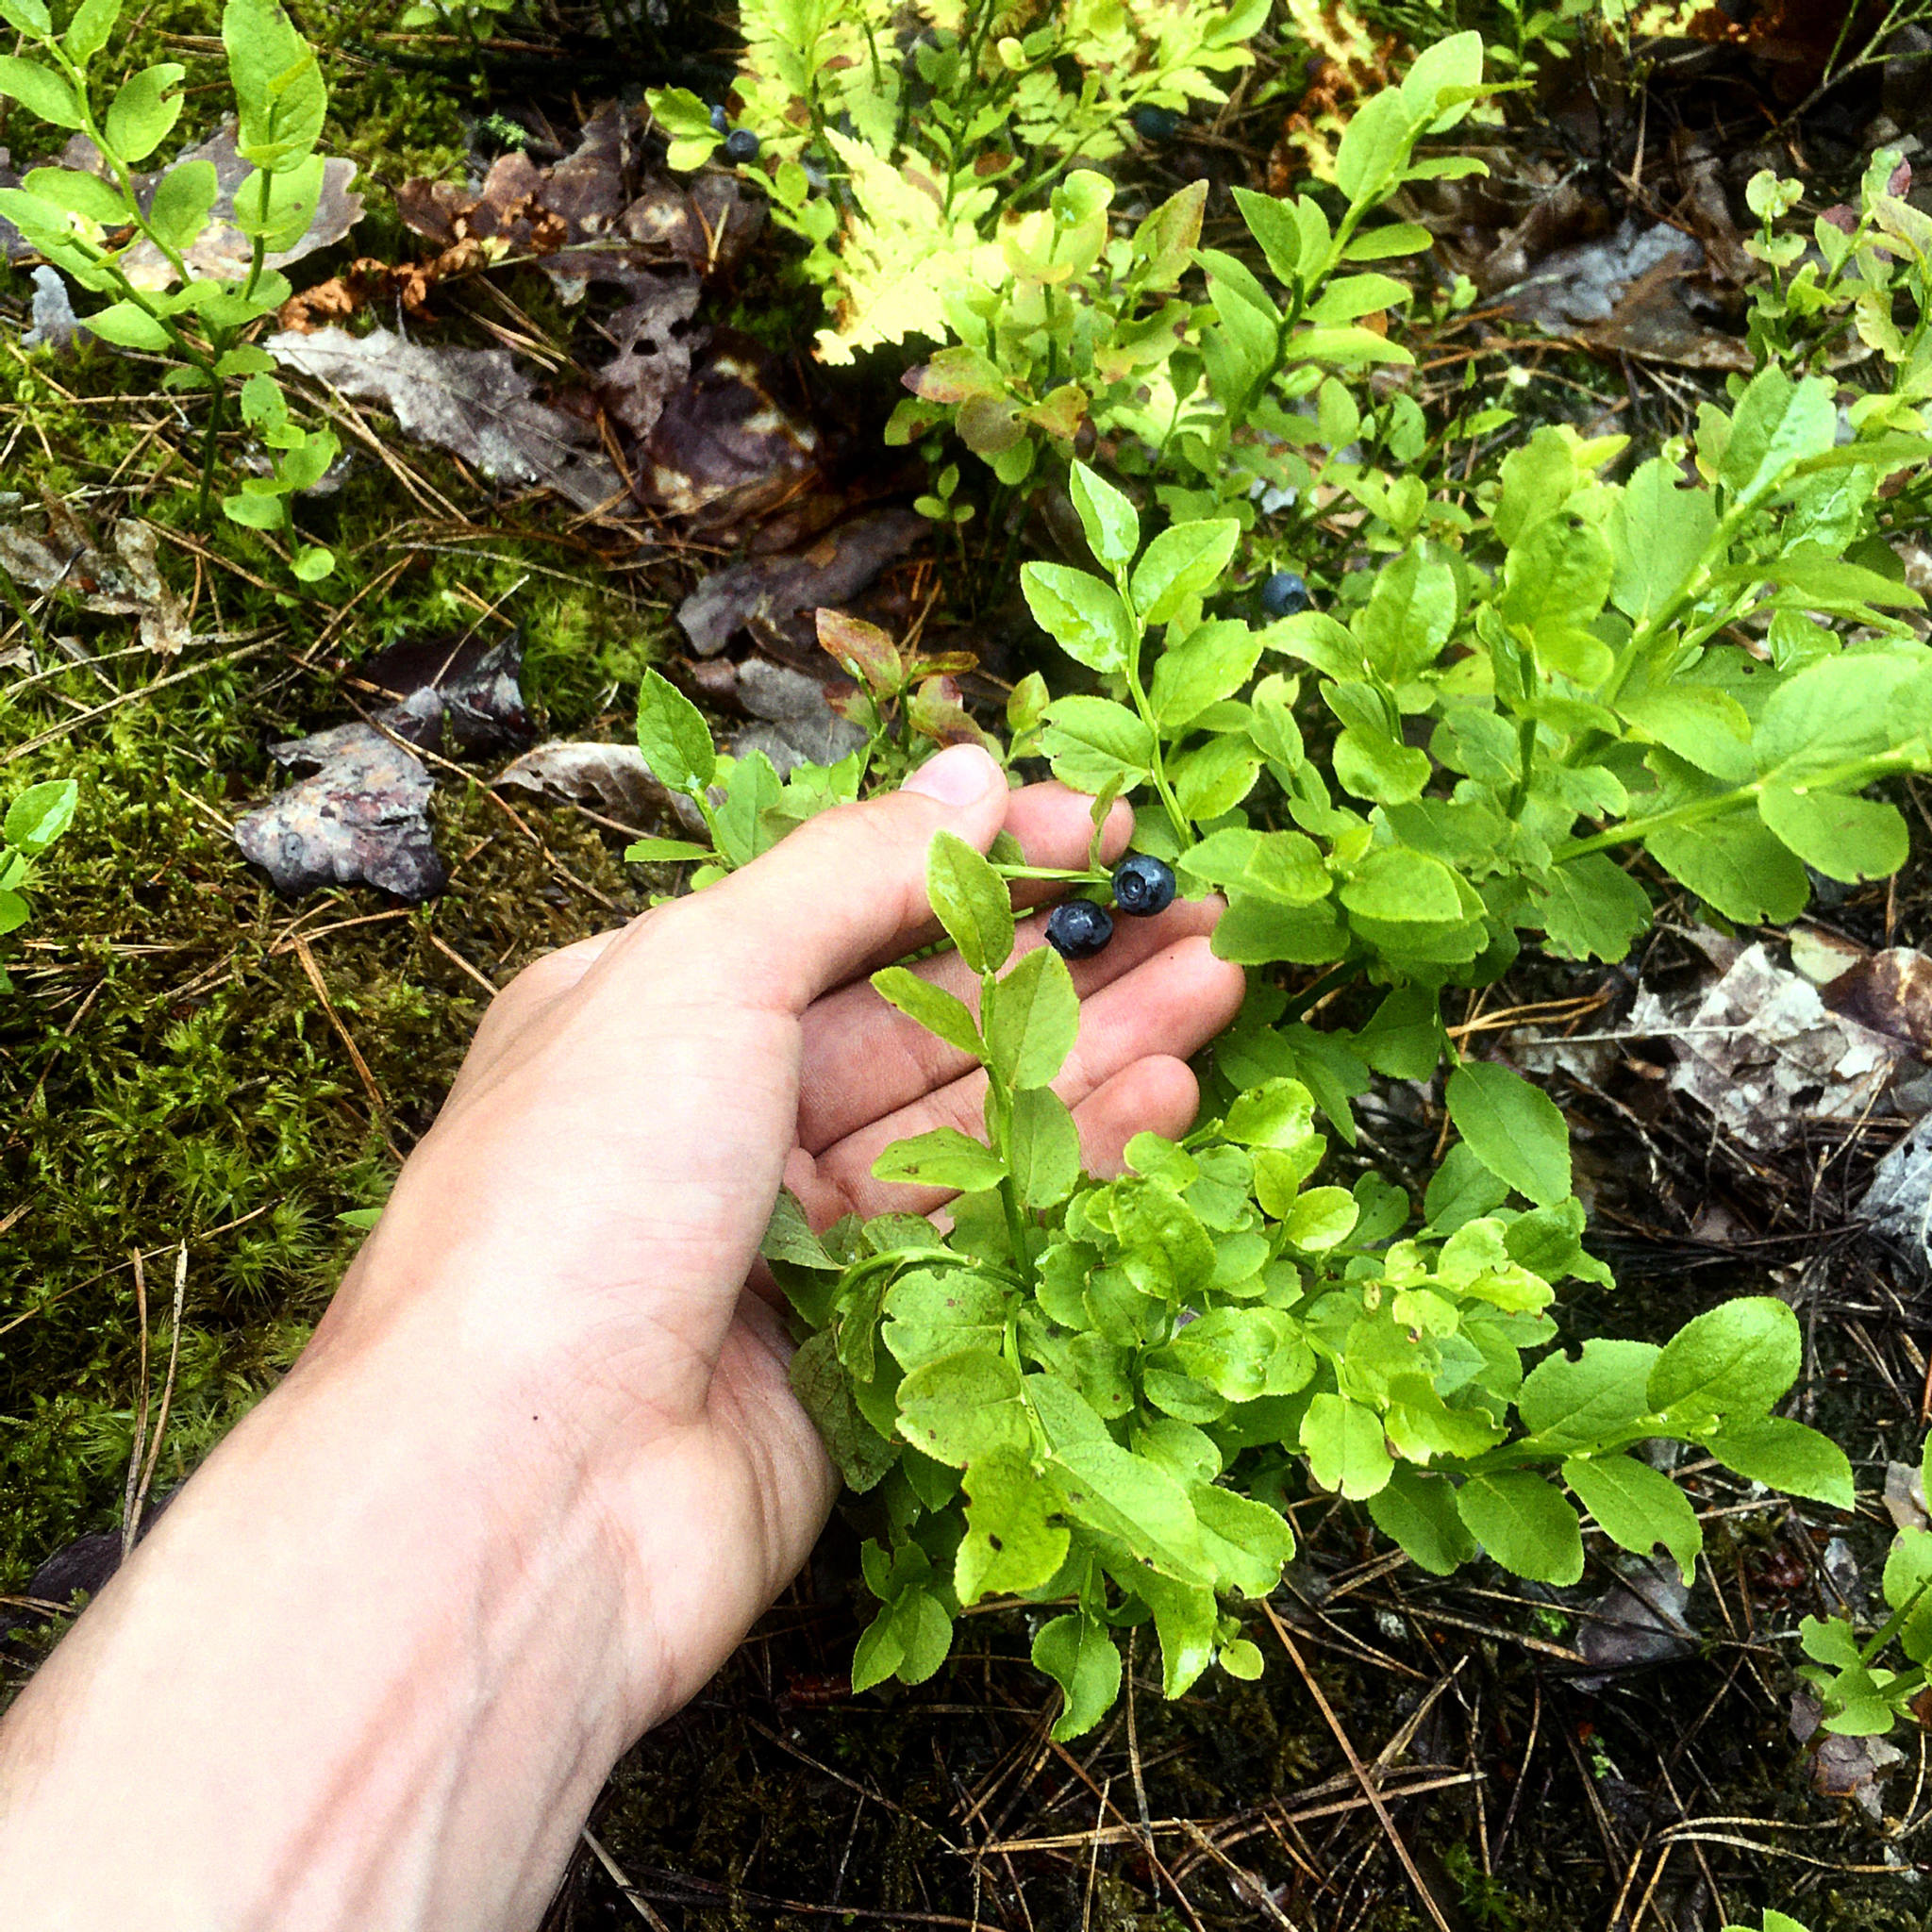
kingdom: Plantae
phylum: Tracheophyta
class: Magnoliopsida
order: Ericales
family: Ericaceae
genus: Vaccinium
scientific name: Vaccinium myrtillus
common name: Bilberry
